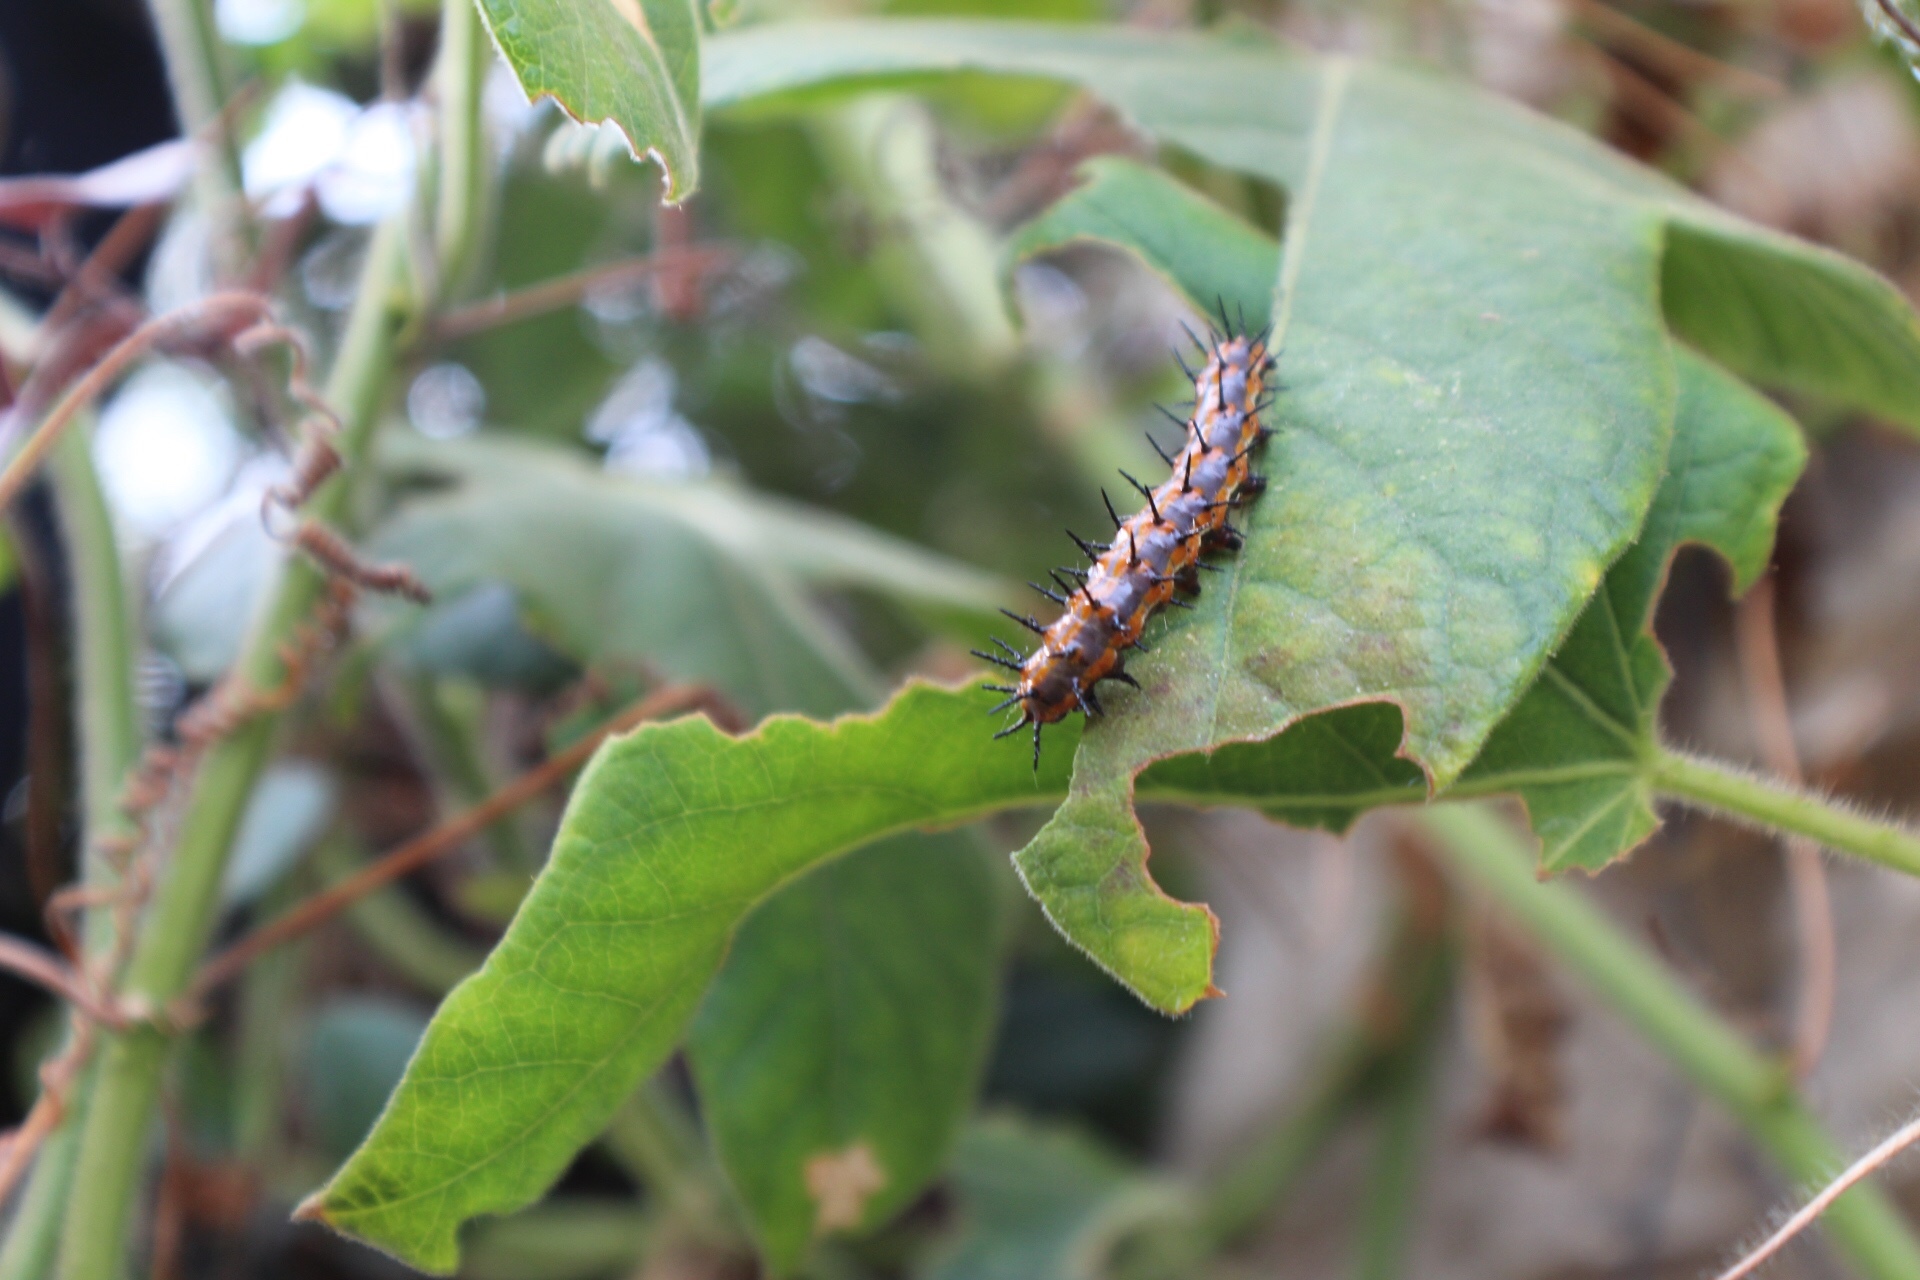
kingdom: Animalia
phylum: Arthropoda
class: Insecta
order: Lepidoptera
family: Nymphalidae
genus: Dione
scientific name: Dione vanillae
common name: Gulf fritillary
